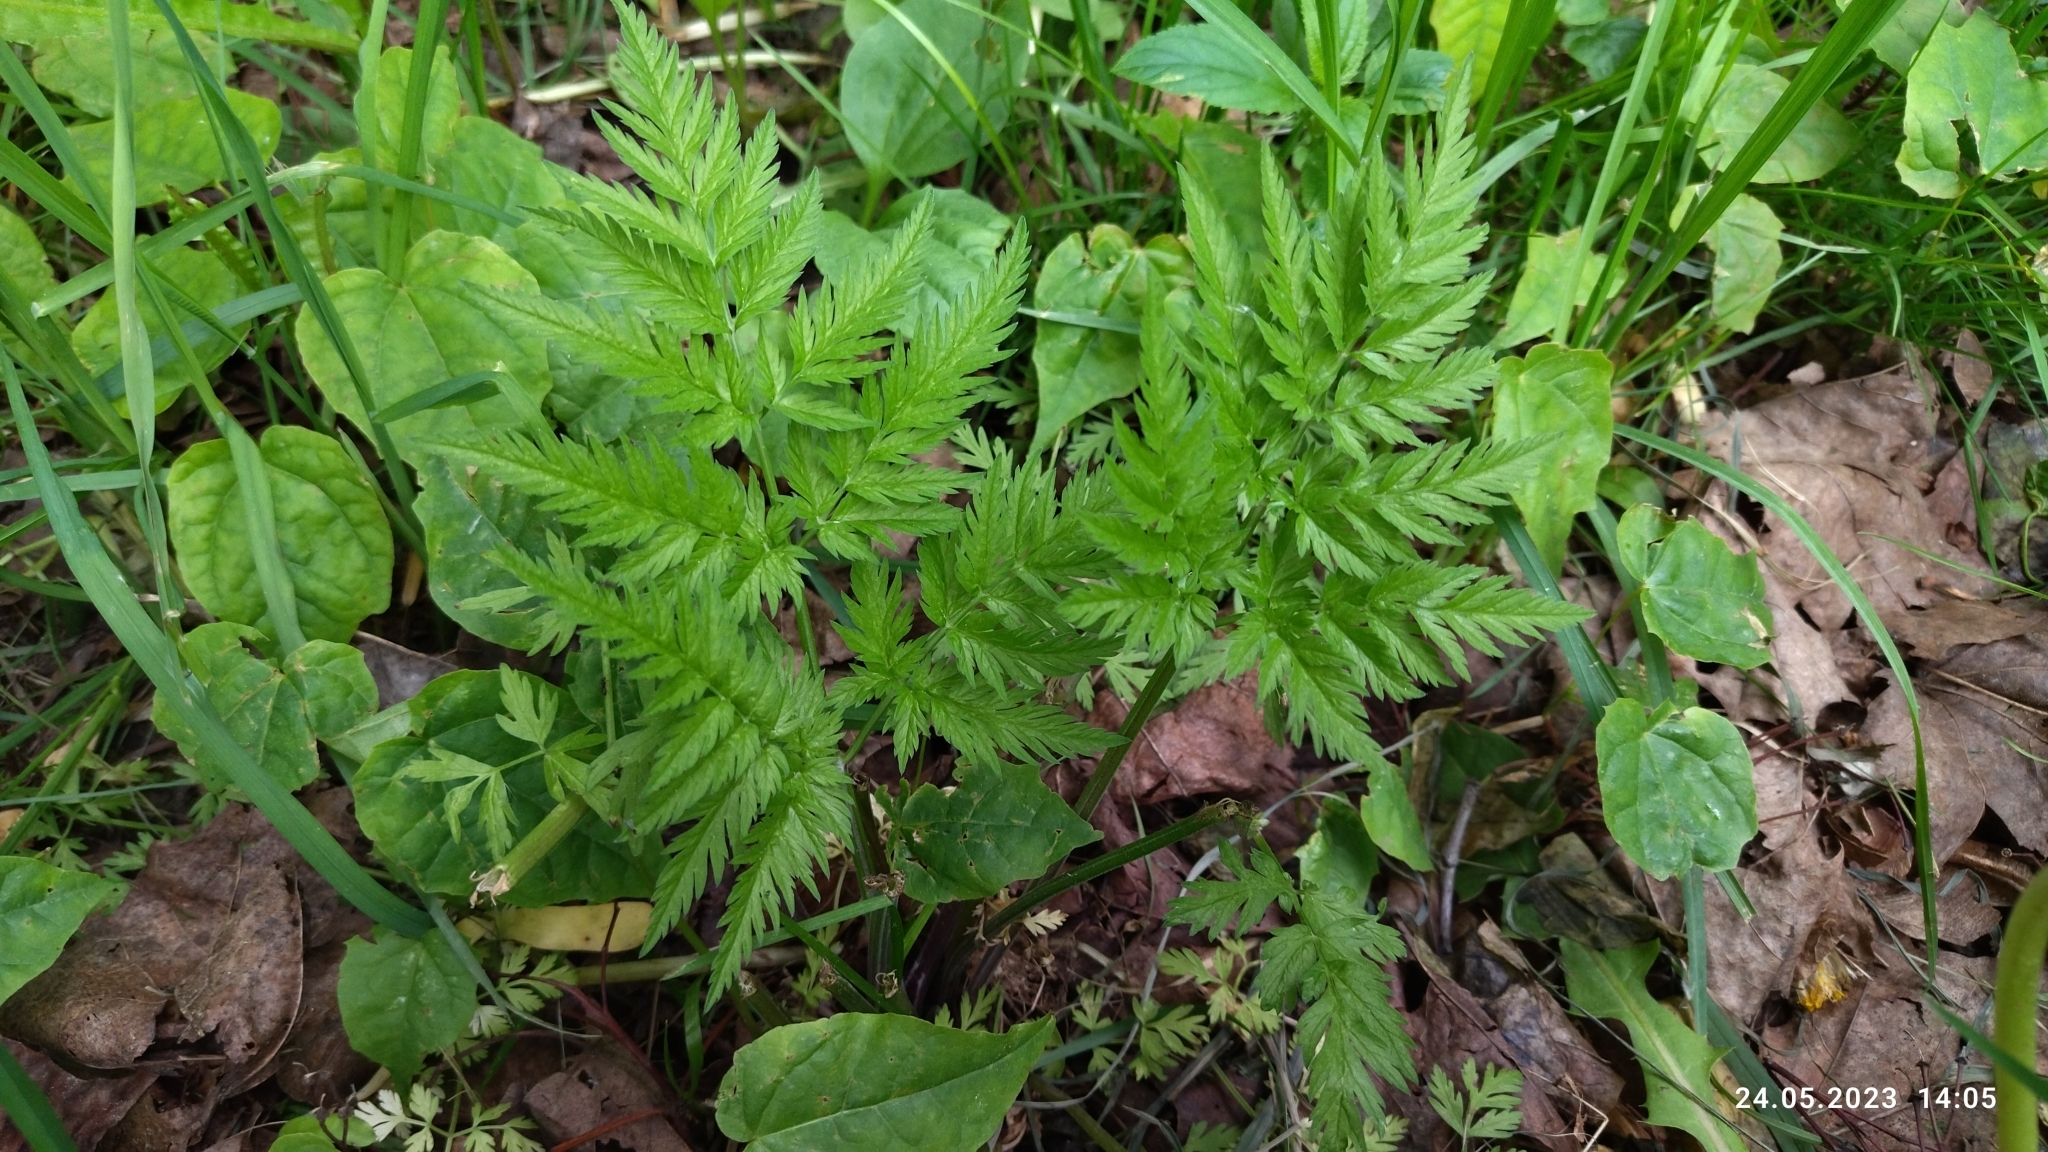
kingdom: Plantae
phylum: Tracheophyta
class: Magnoliopsida
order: Apiales
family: Apiaceae
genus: Anthriscus
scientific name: Anthriscus sylvestris
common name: Cow parsley
